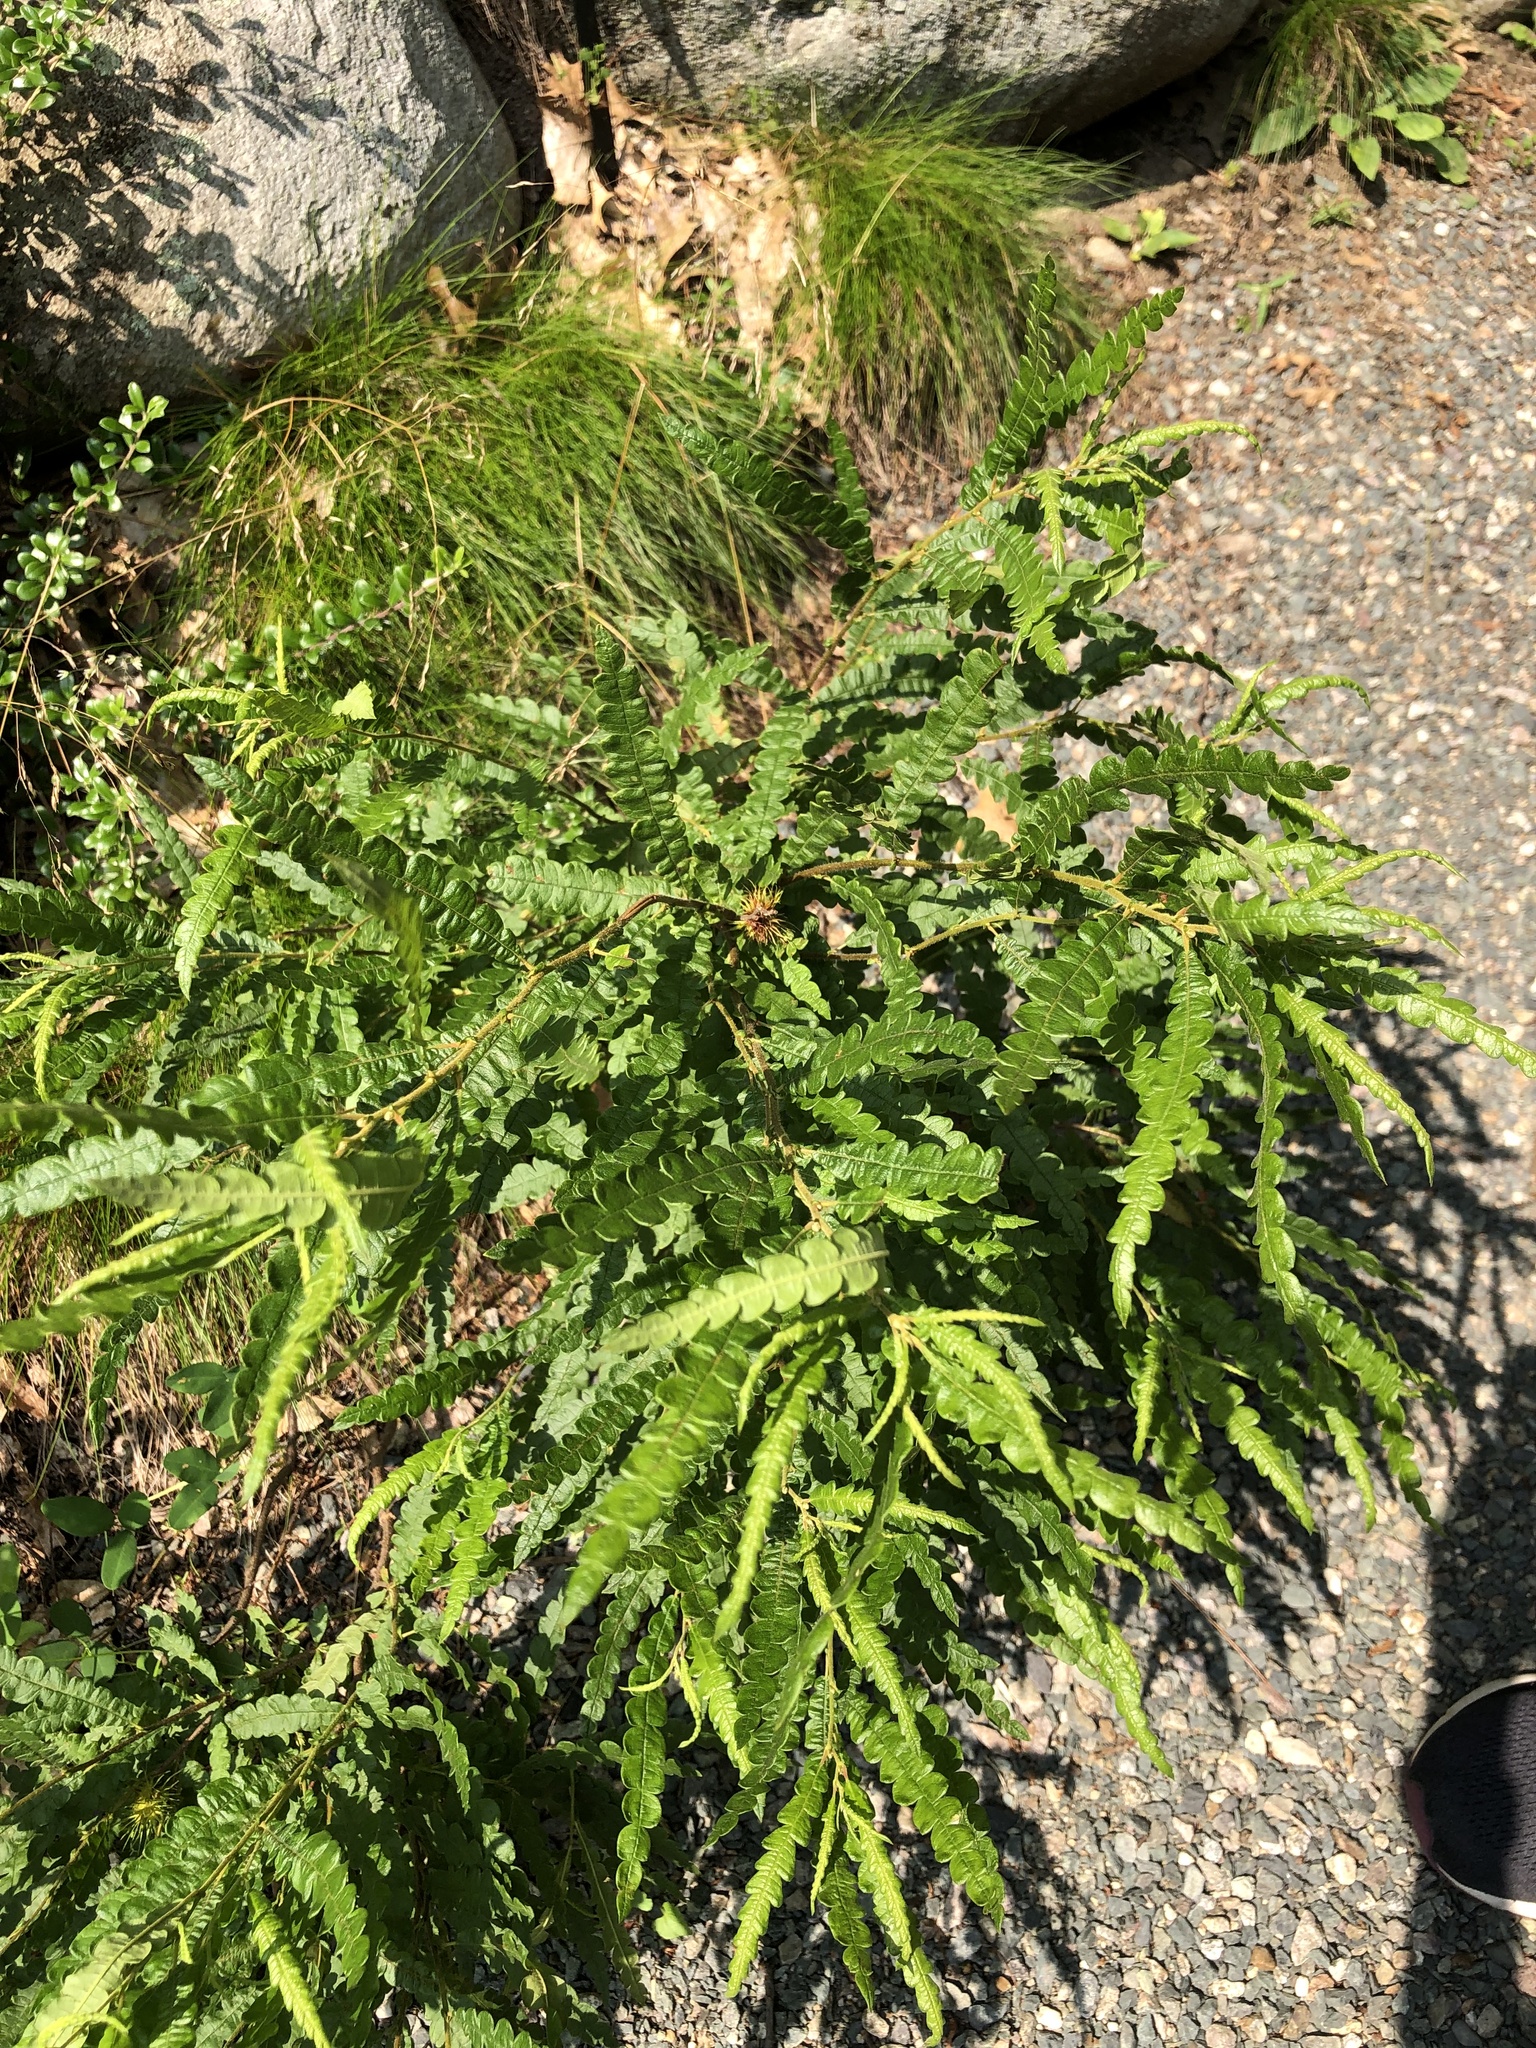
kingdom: Plantae
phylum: Tracheophyta
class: Magnoliopsida
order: Fagales
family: Myricaceae
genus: Comptonia
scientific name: Comptonia peregrina
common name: Sweet-fern
